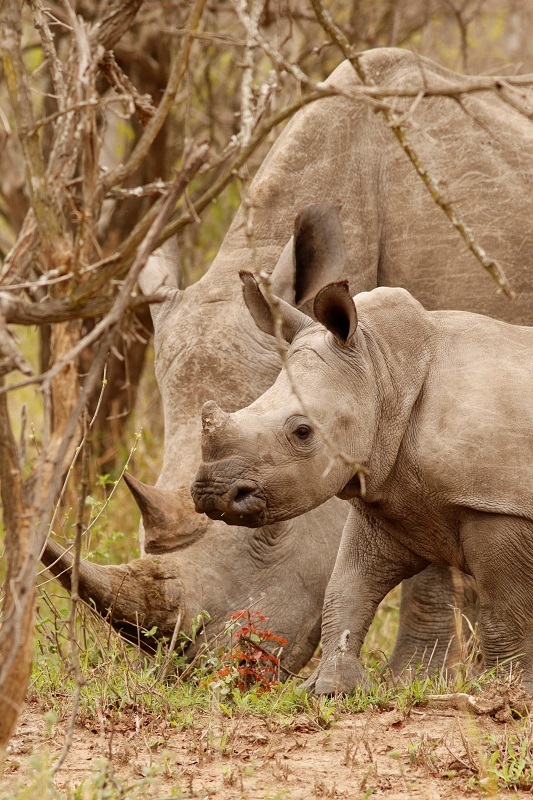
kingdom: Animalia
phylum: Chordata
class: Mammalia
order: Perissodactyla
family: Rhinocerotidae
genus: Ceratotherium
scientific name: Ceratotherium simum
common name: White rhinoceros
